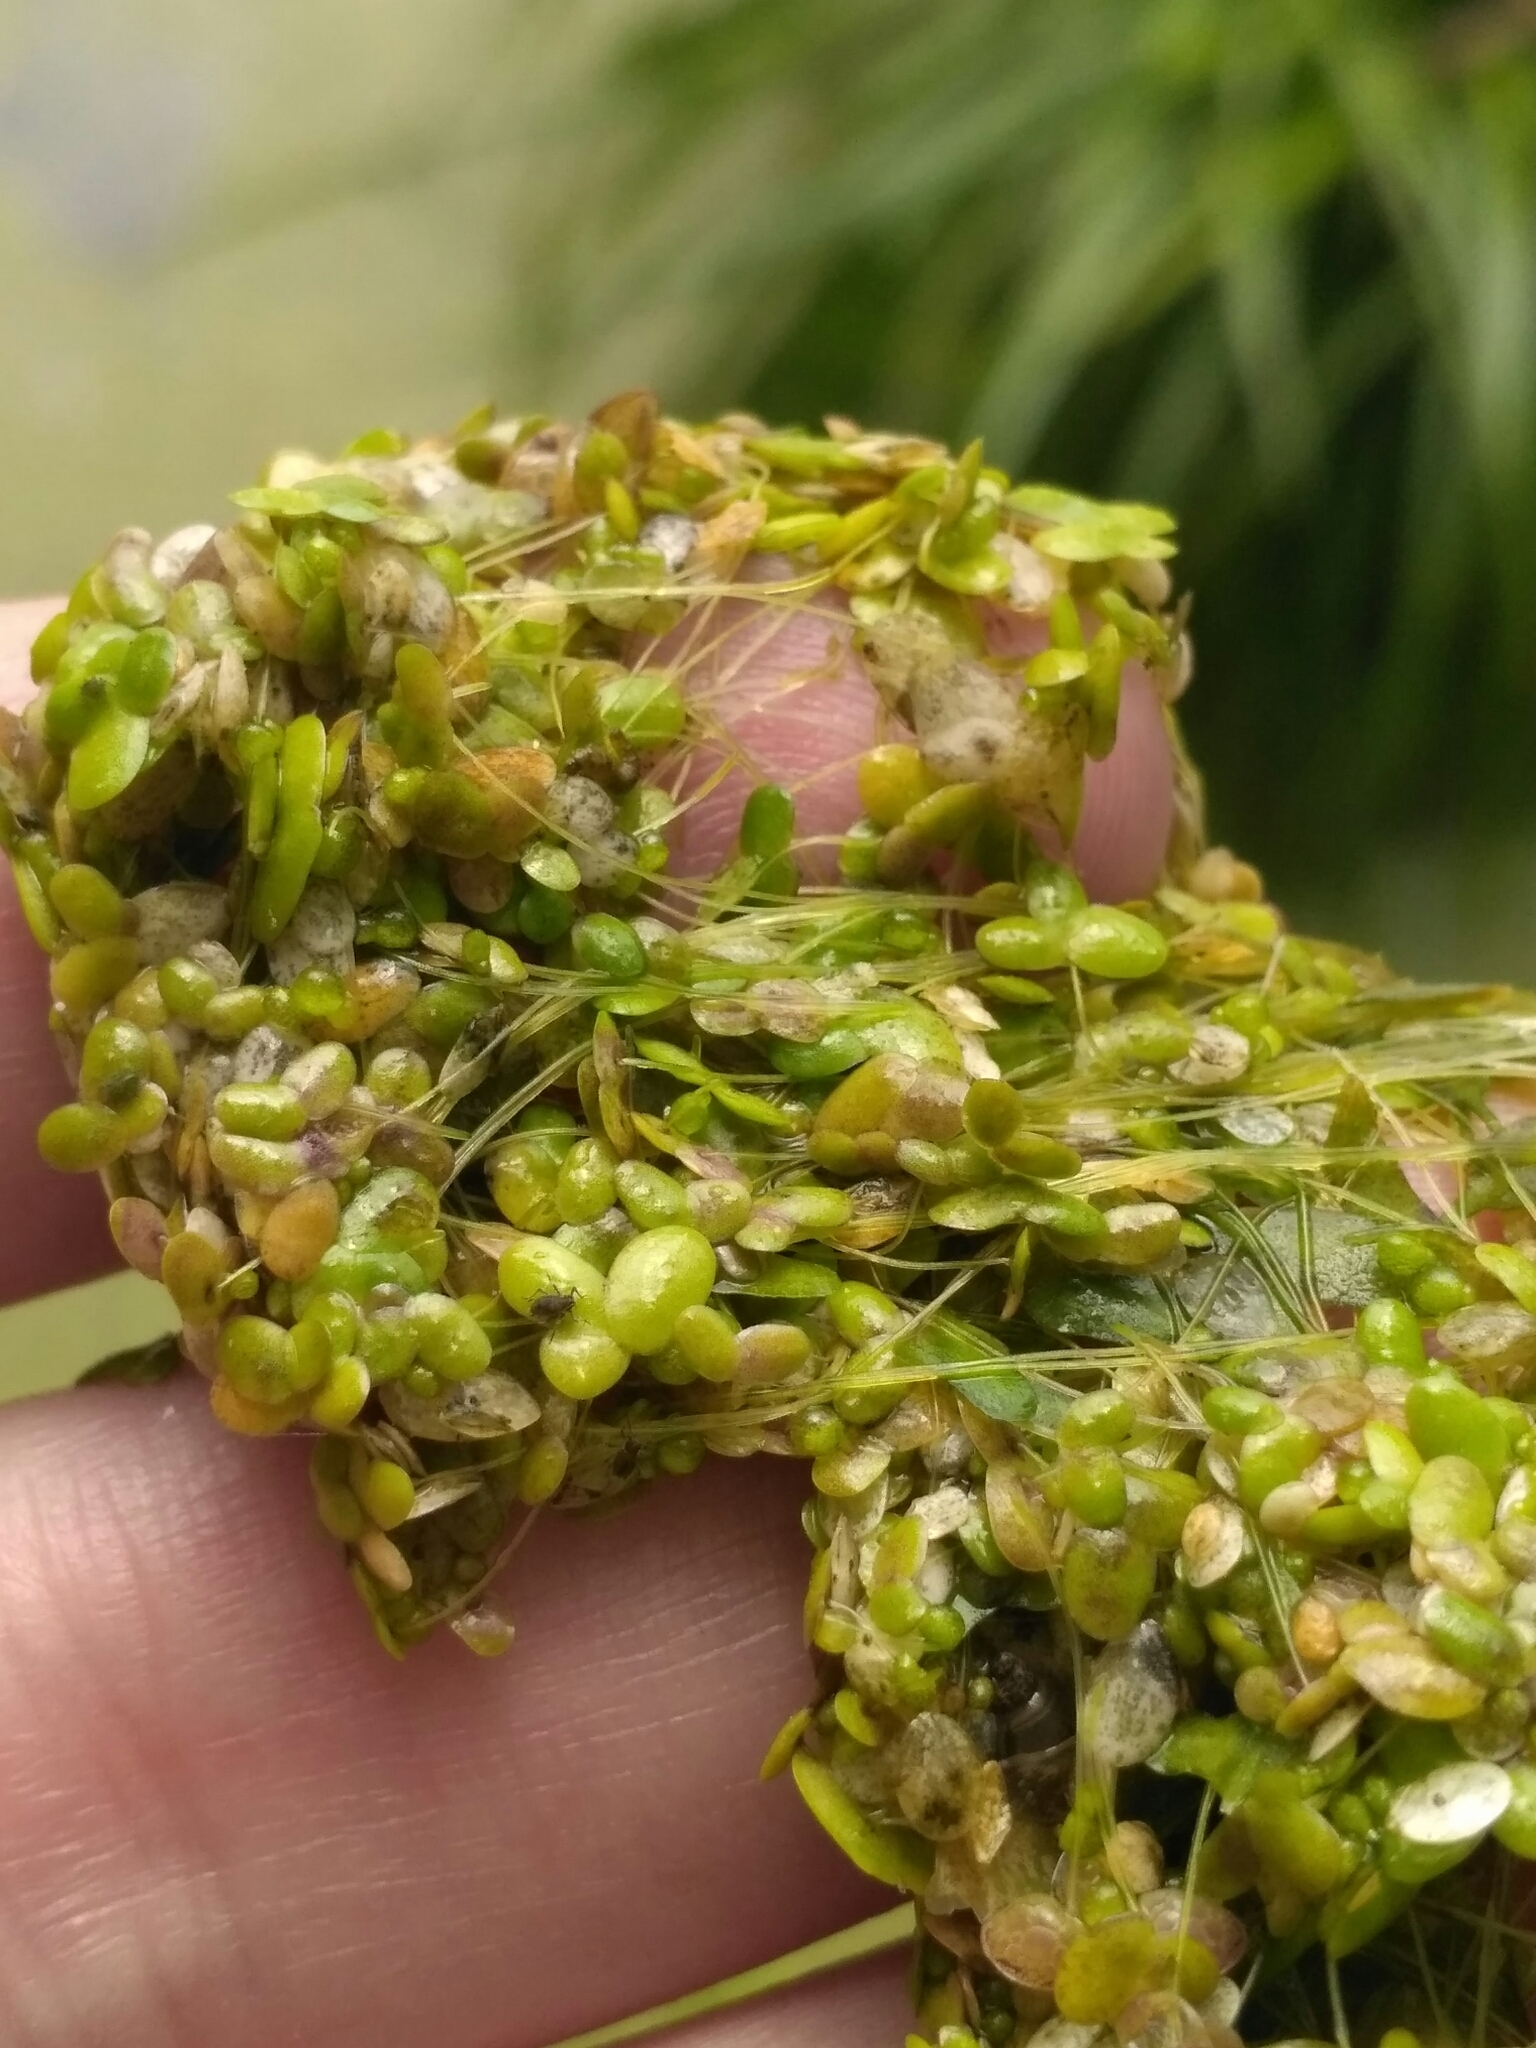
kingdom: Plantae
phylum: Tracheophyta
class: Liliopsida
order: Alismatales
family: Araceae
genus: Lemna
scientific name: Lemna minor
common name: Common duckweed
